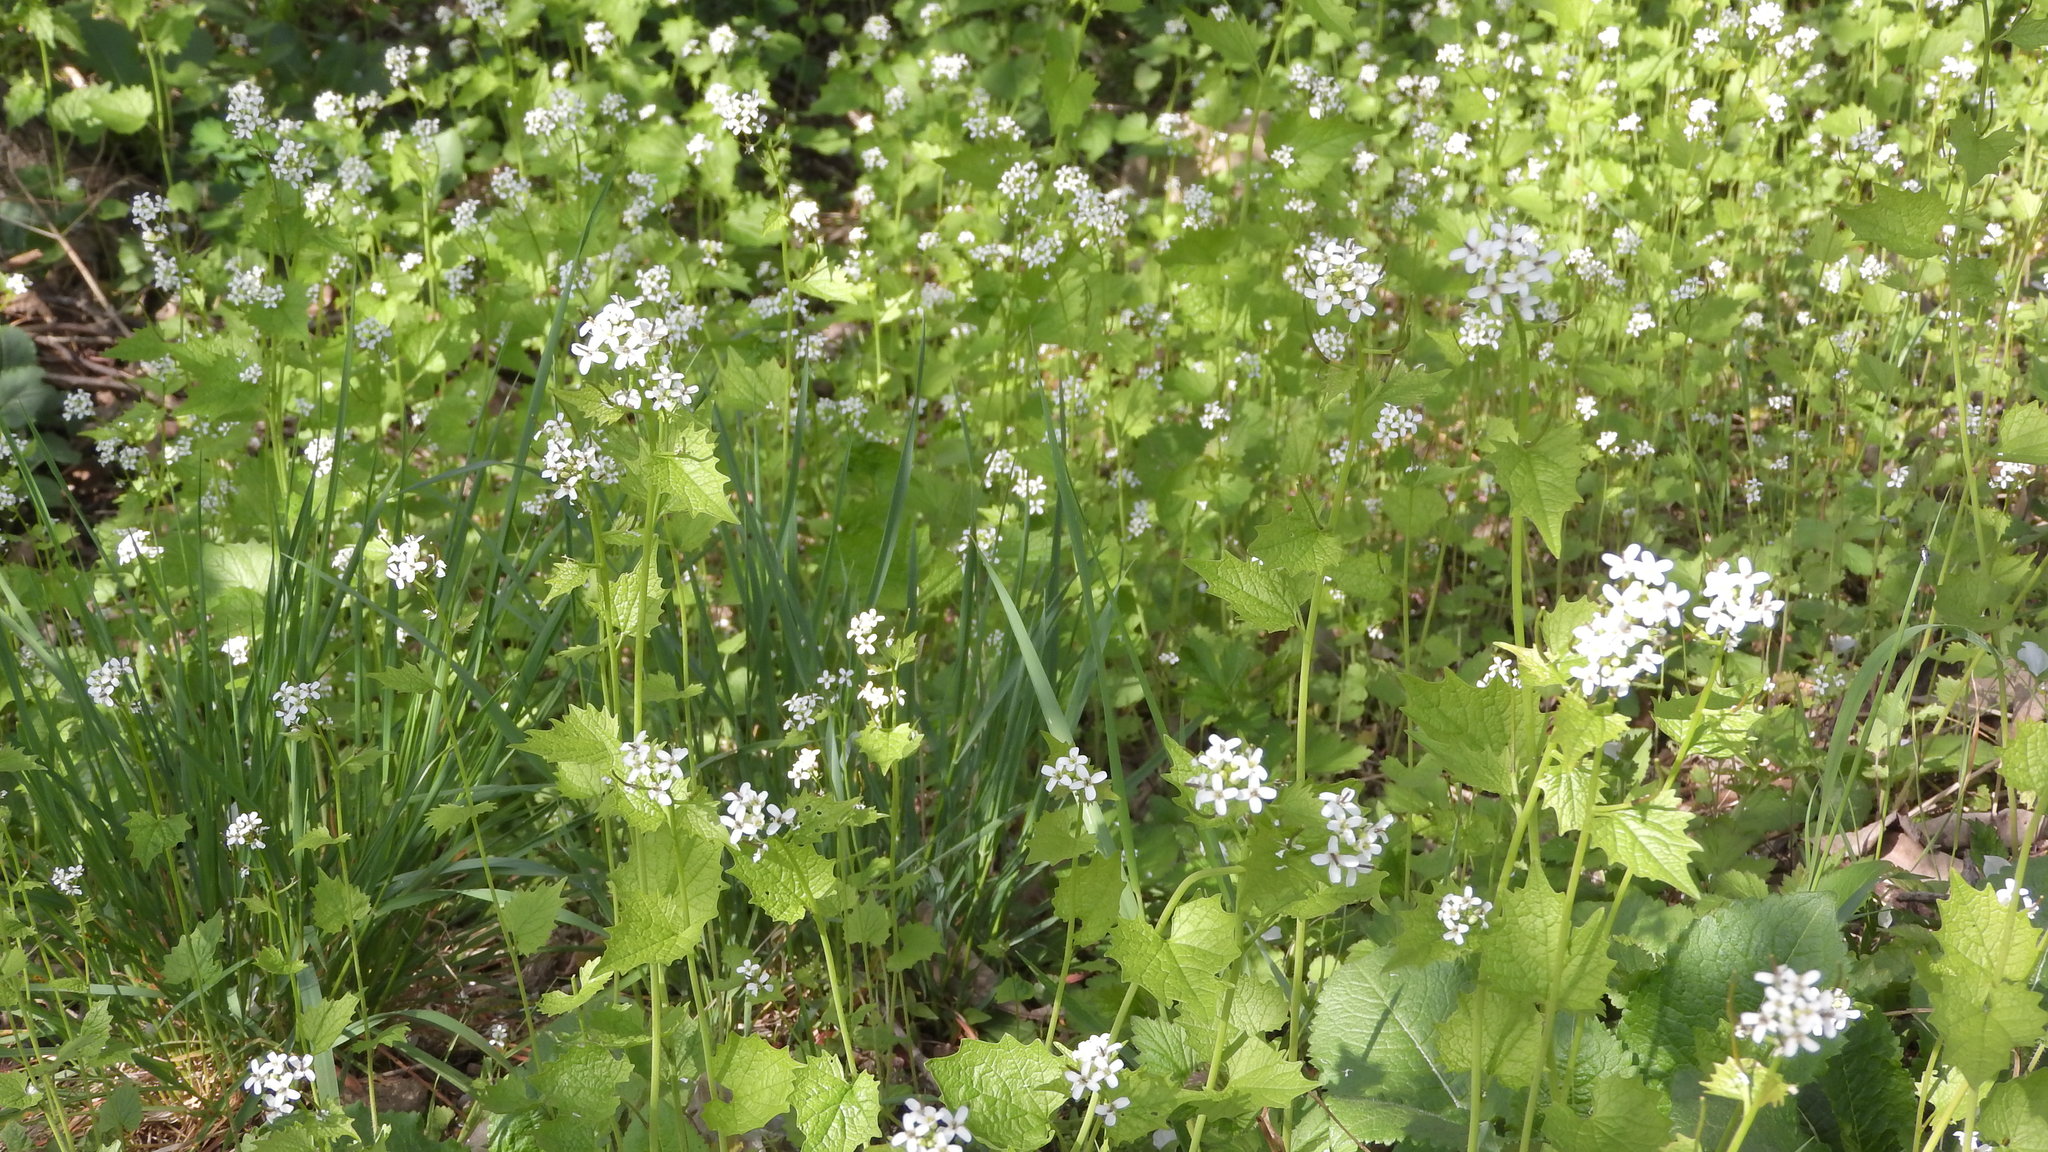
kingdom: Plantae
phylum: Tracheophyta
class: Magnoliopsida
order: Brassicales
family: Brassicaceae
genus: Alliaria
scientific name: Alliaria petiolata
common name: Garlic mustard
